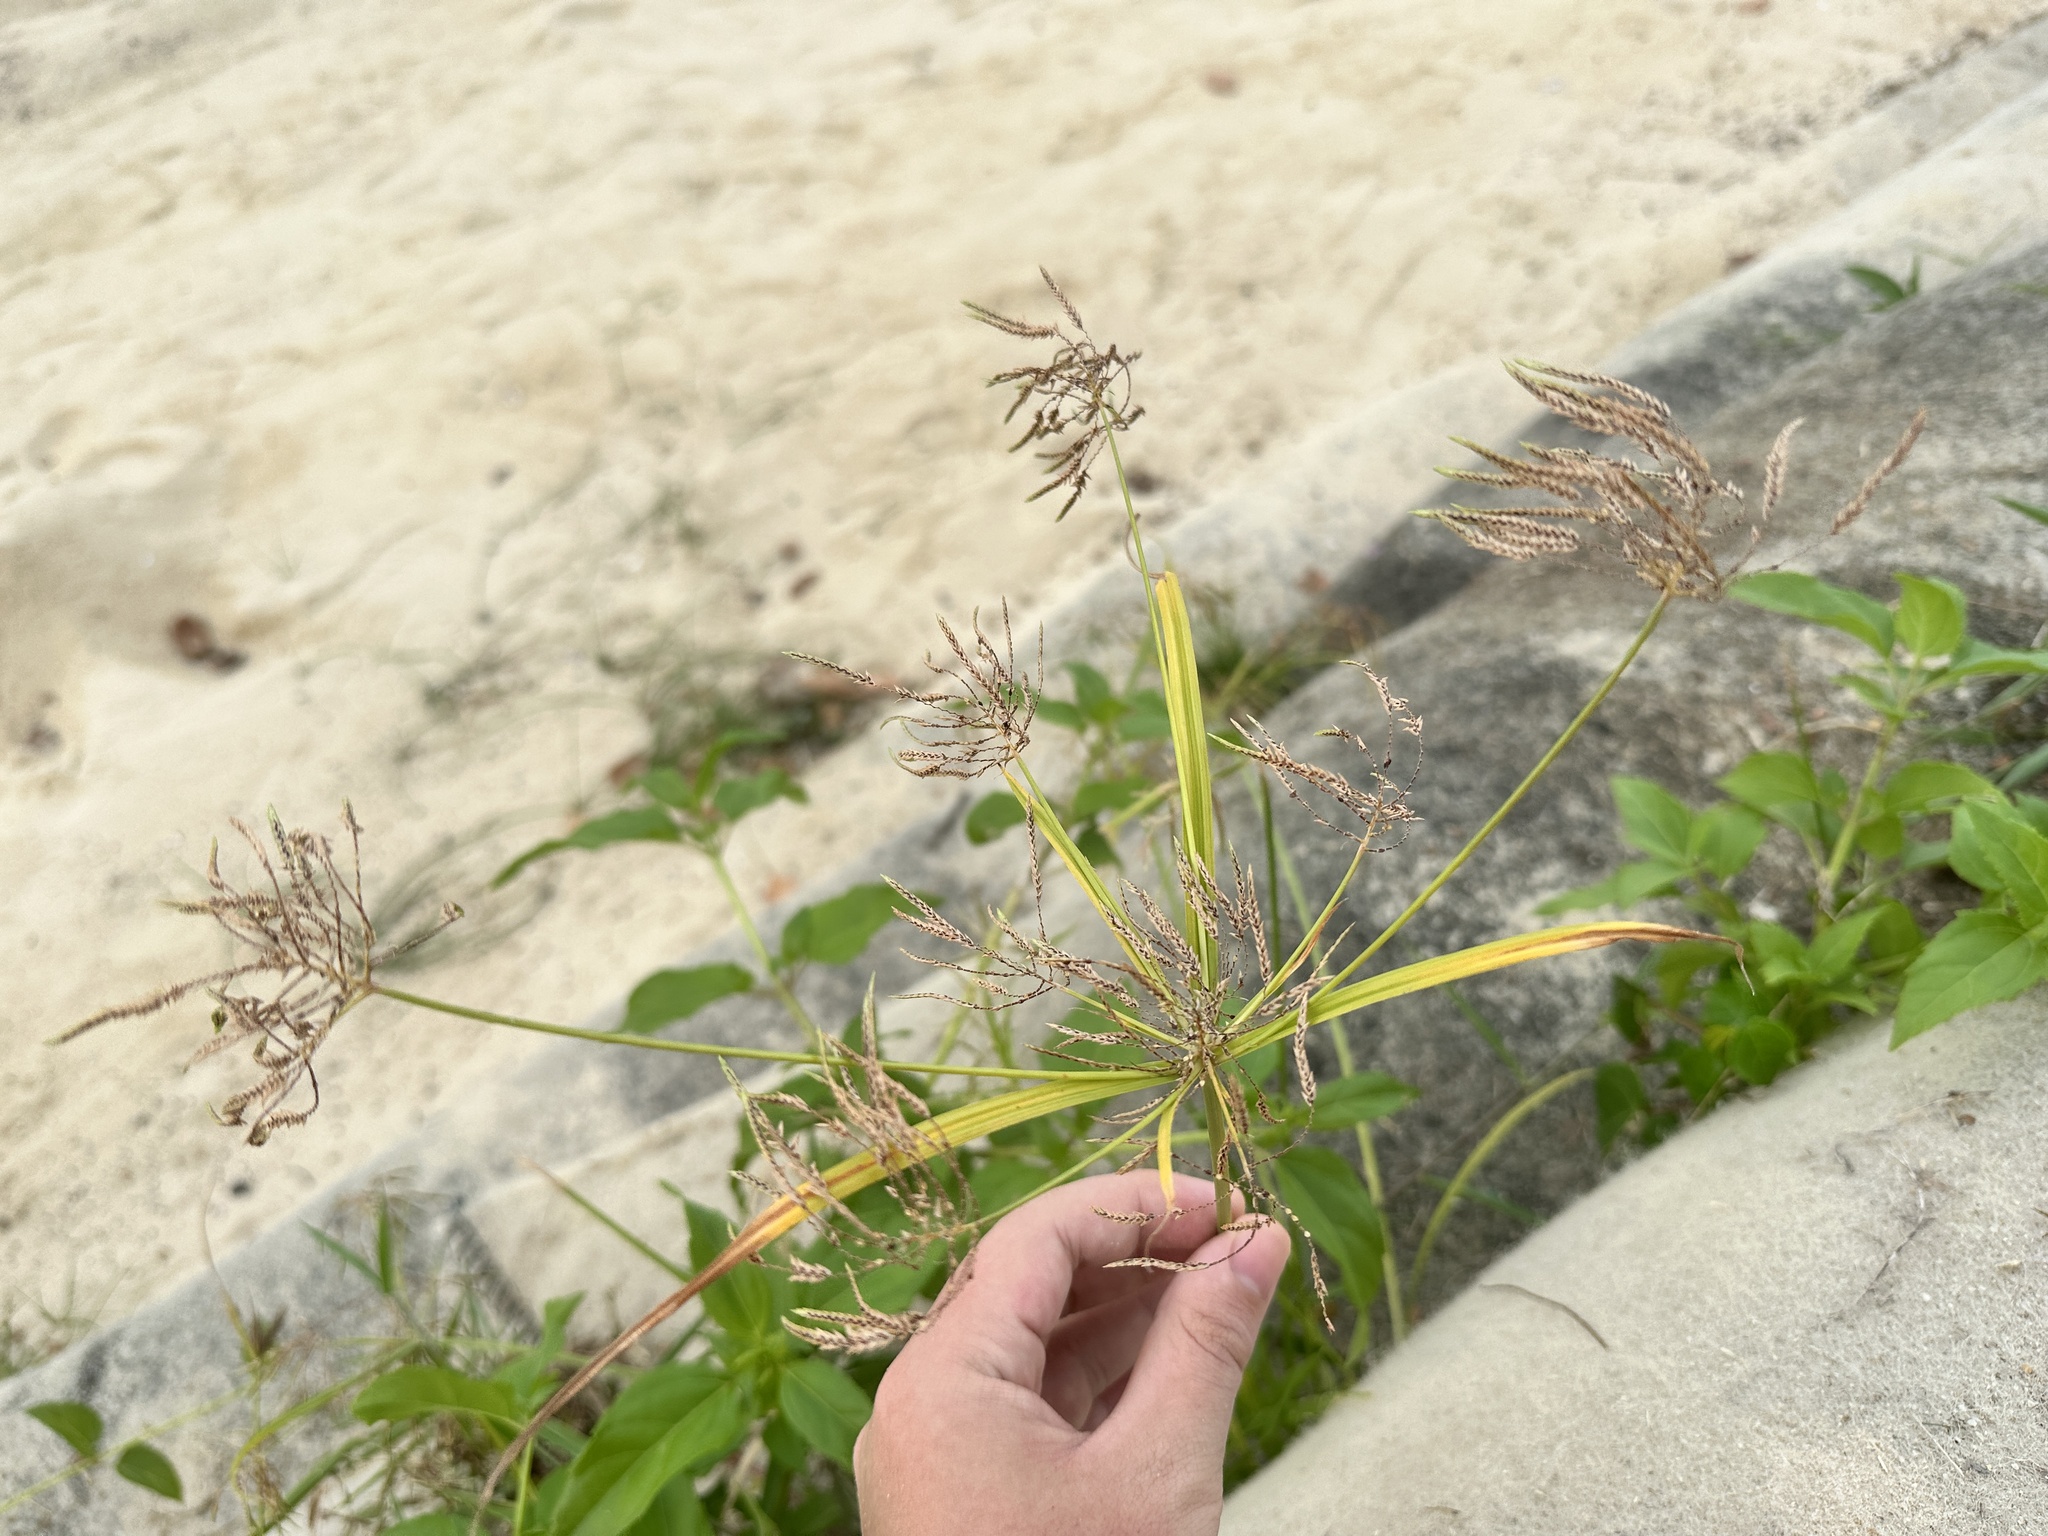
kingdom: Plantae
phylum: Tracheophyta
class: Liliopsida
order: Poales
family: Cyperaceae
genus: Cyperus
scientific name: Cyperus sphacelatus
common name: Roadside flatsedge
